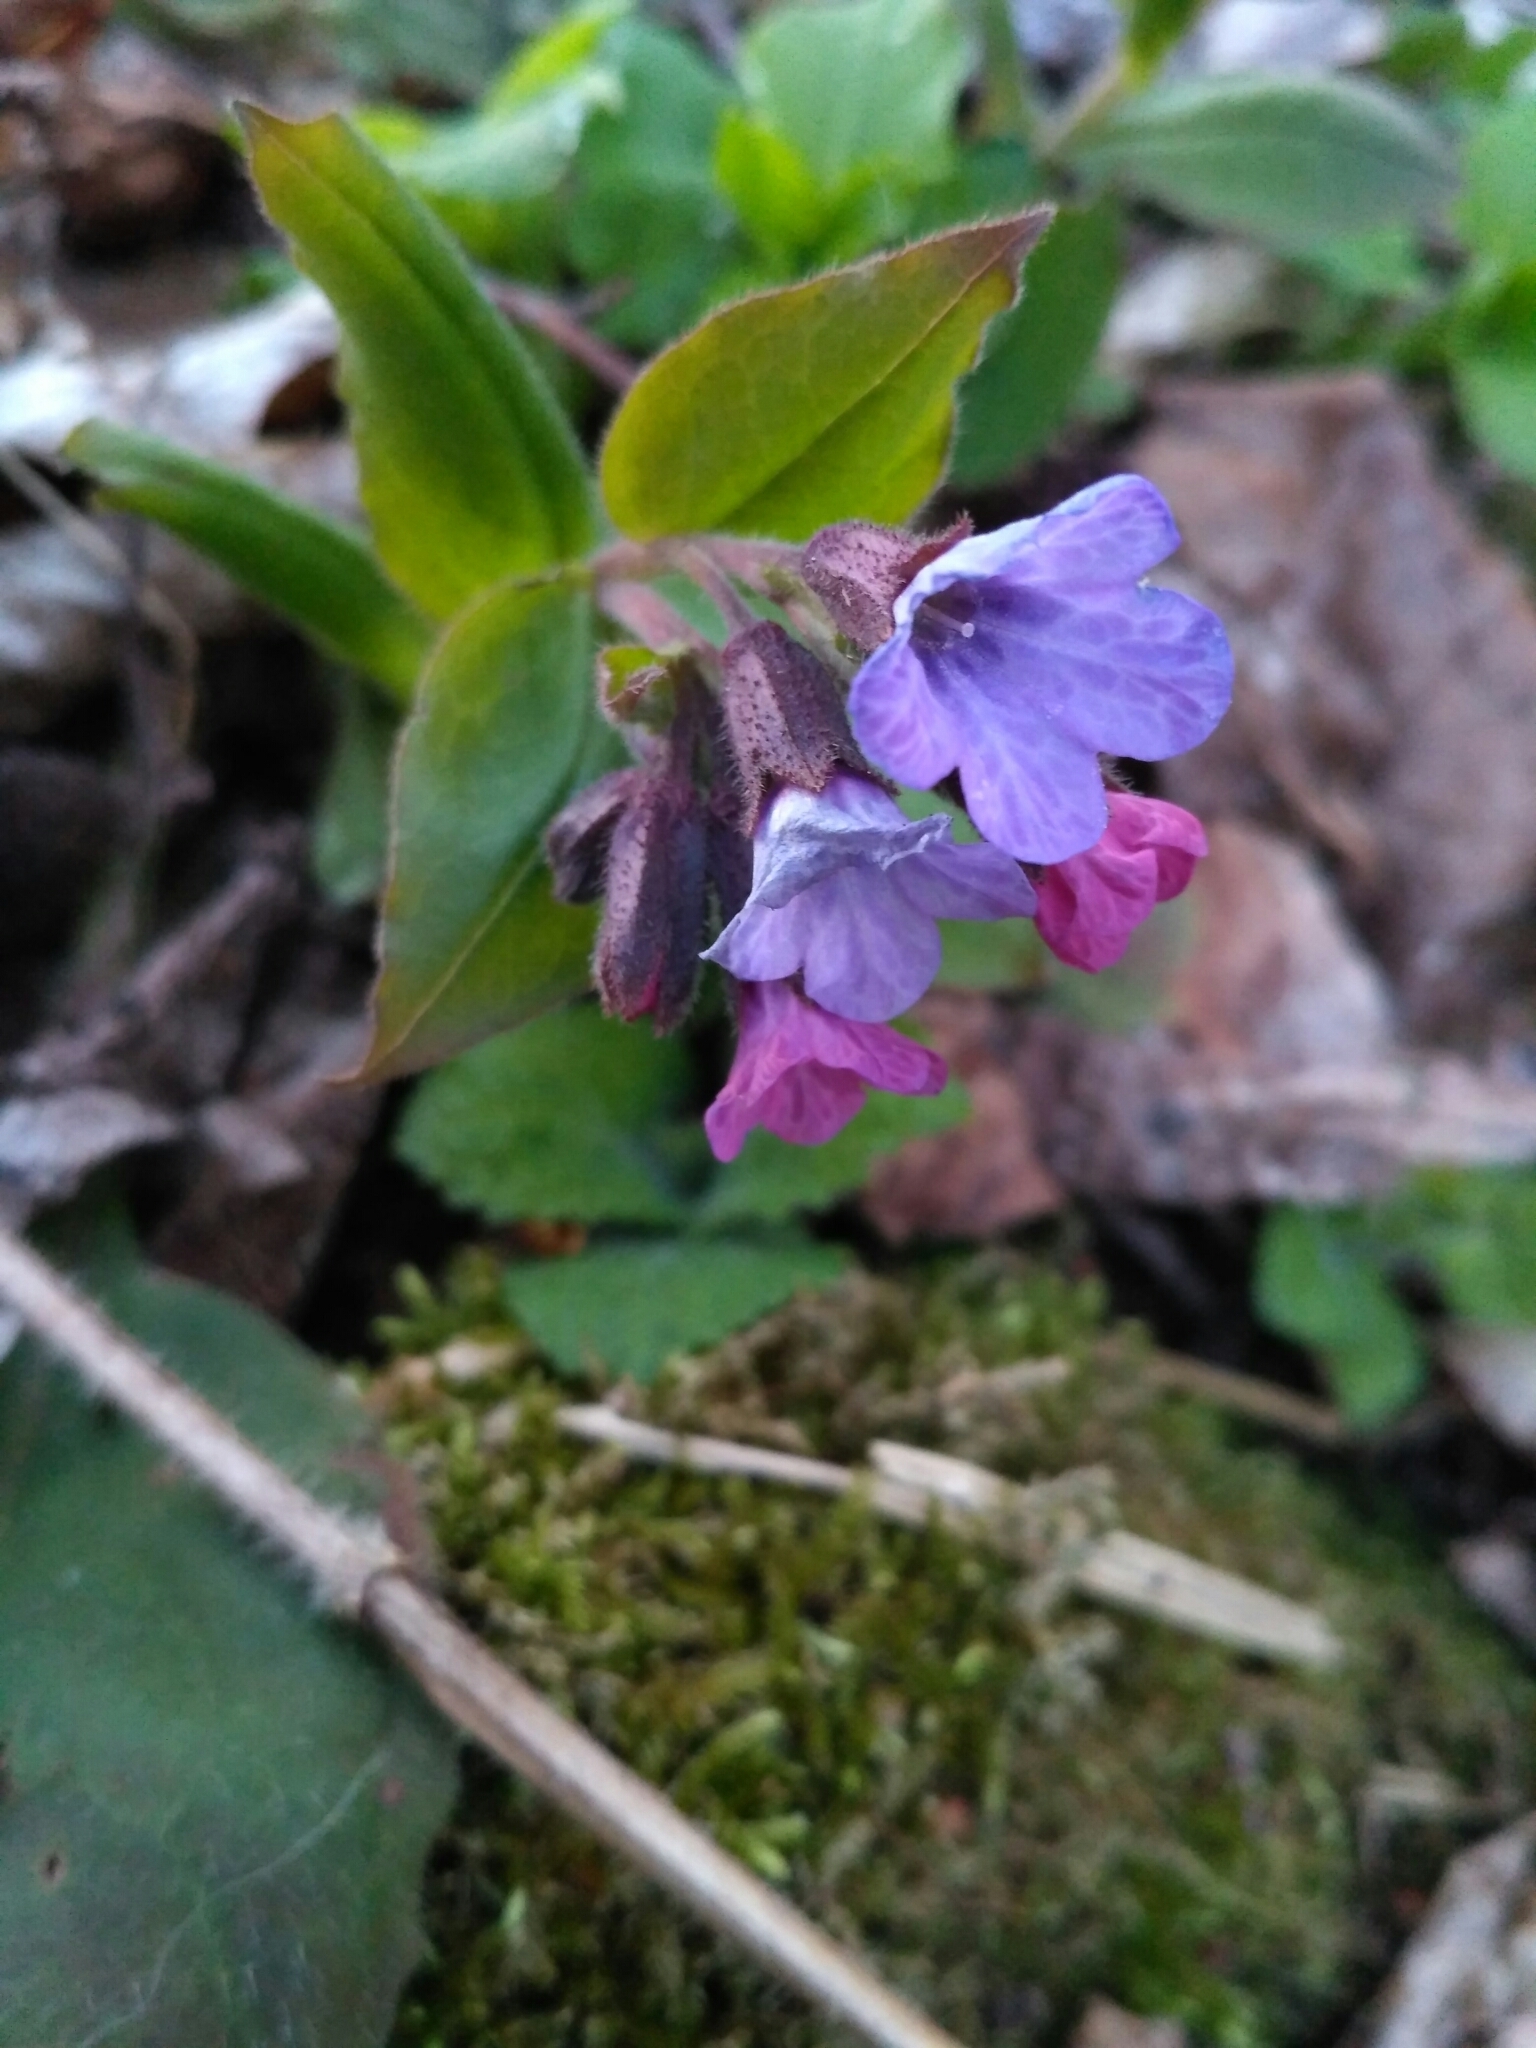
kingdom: Plantae
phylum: Tracheophyta
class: Magnoliopsida
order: Boraginales
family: Boraginaceae
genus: Pulmonaria
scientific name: Pulmonaria obscura
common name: Suffolk lungwort
